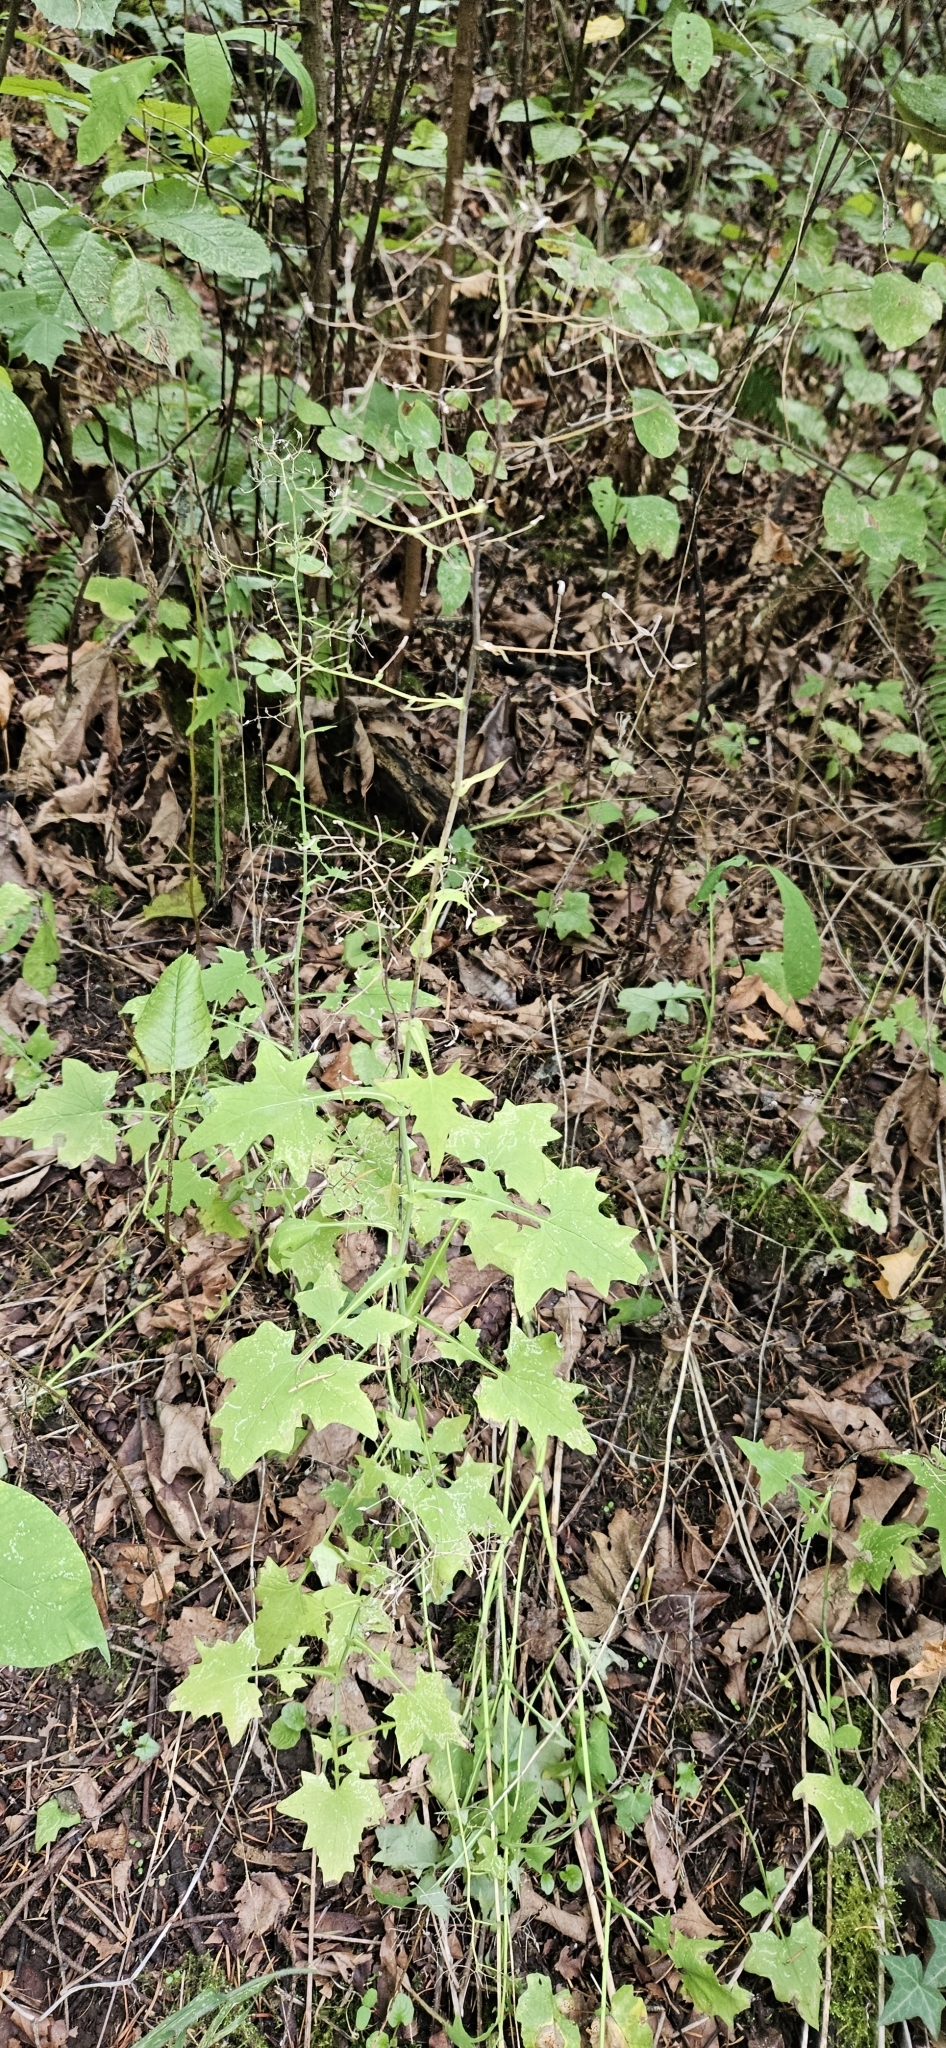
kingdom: Plantae
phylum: Tracheophyta
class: Magnoliopsida
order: Asterales
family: Asteraceae
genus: Mycelis
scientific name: Mycelis muralis
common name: Wall lettuce
